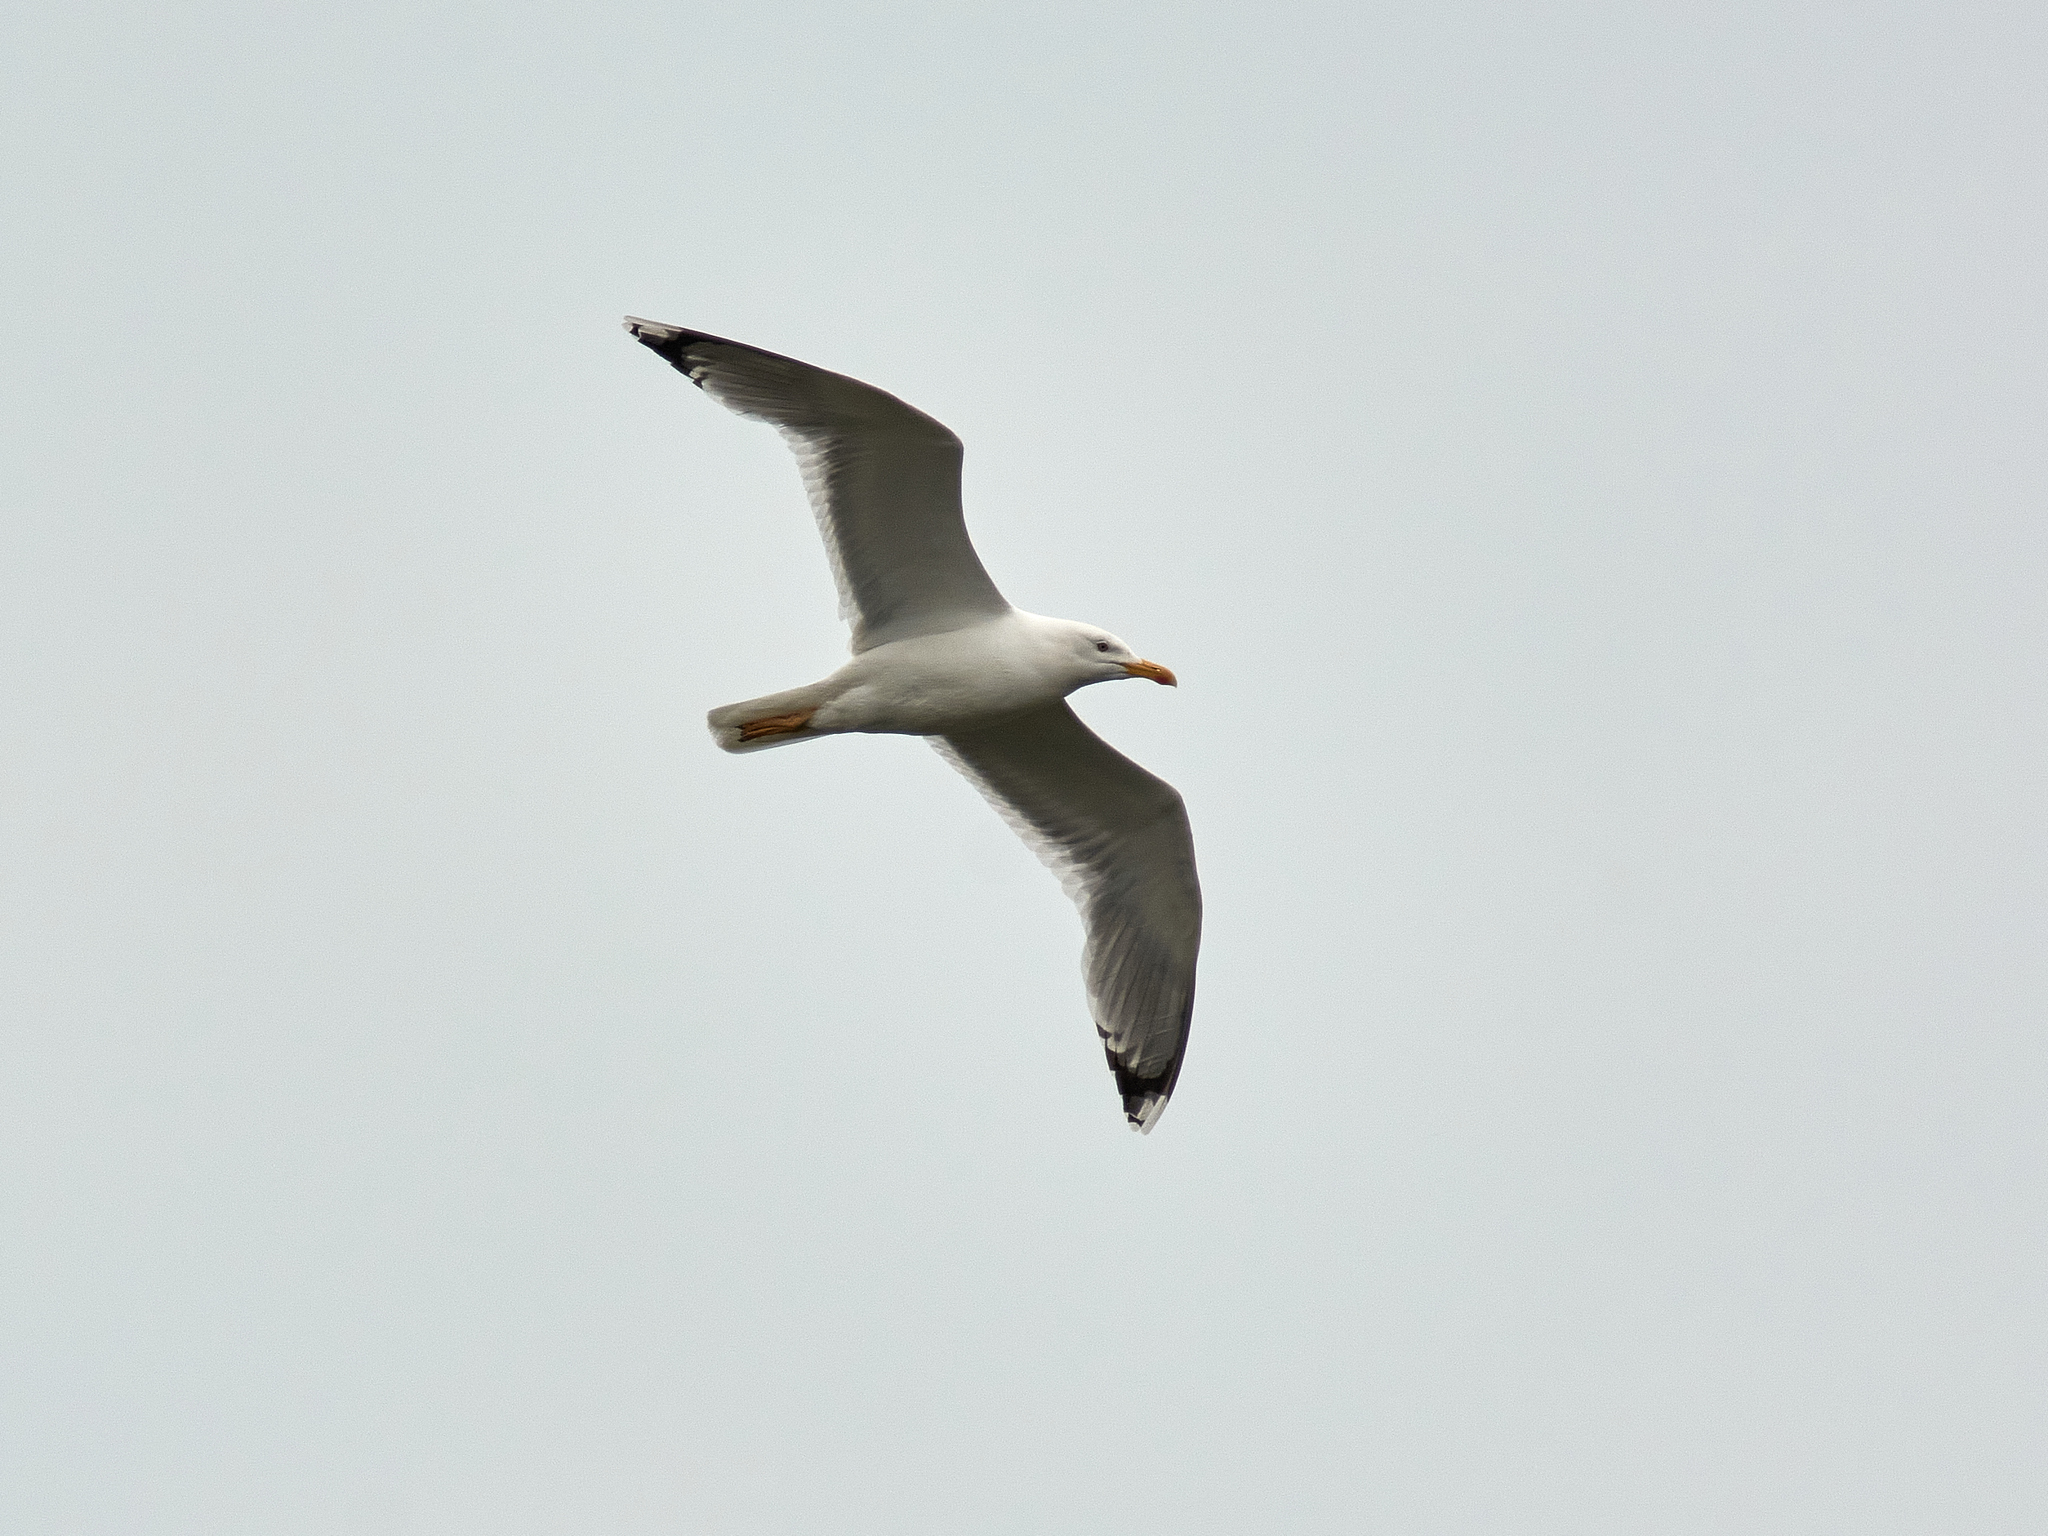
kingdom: Animalia
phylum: Chordata
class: Aves
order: Charadriiformes
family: Laridae
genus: Larus
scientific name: Larus cachinnans
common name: Caspian gull
